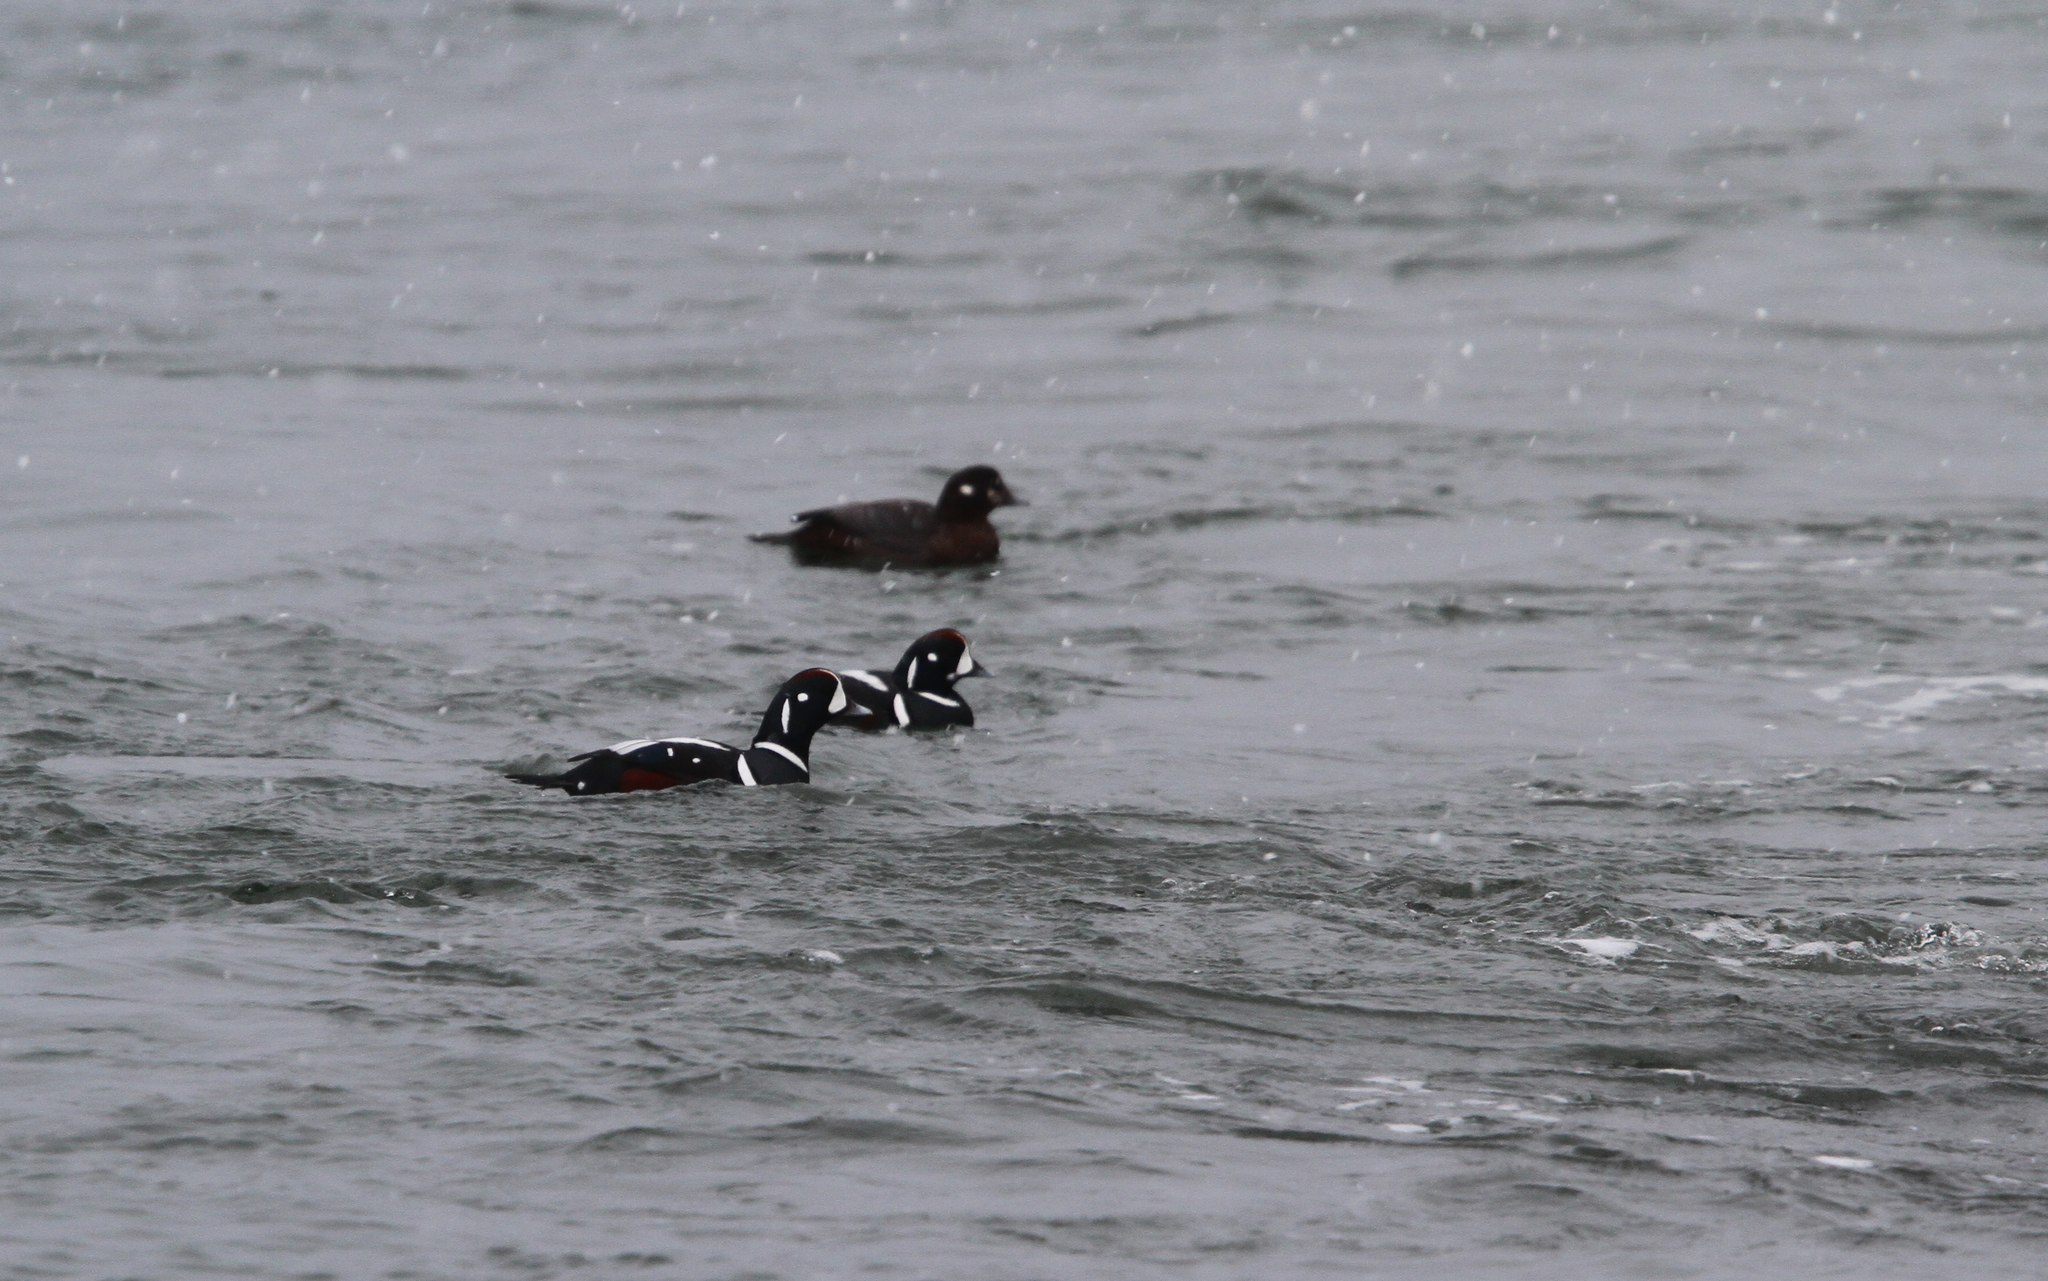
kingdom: Animalia
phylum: Chordata
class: Aves
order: Anseriformes
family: Anatidae
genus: Histrionicus
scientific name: Histrionicus histrionicus
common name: Harlequin duck
